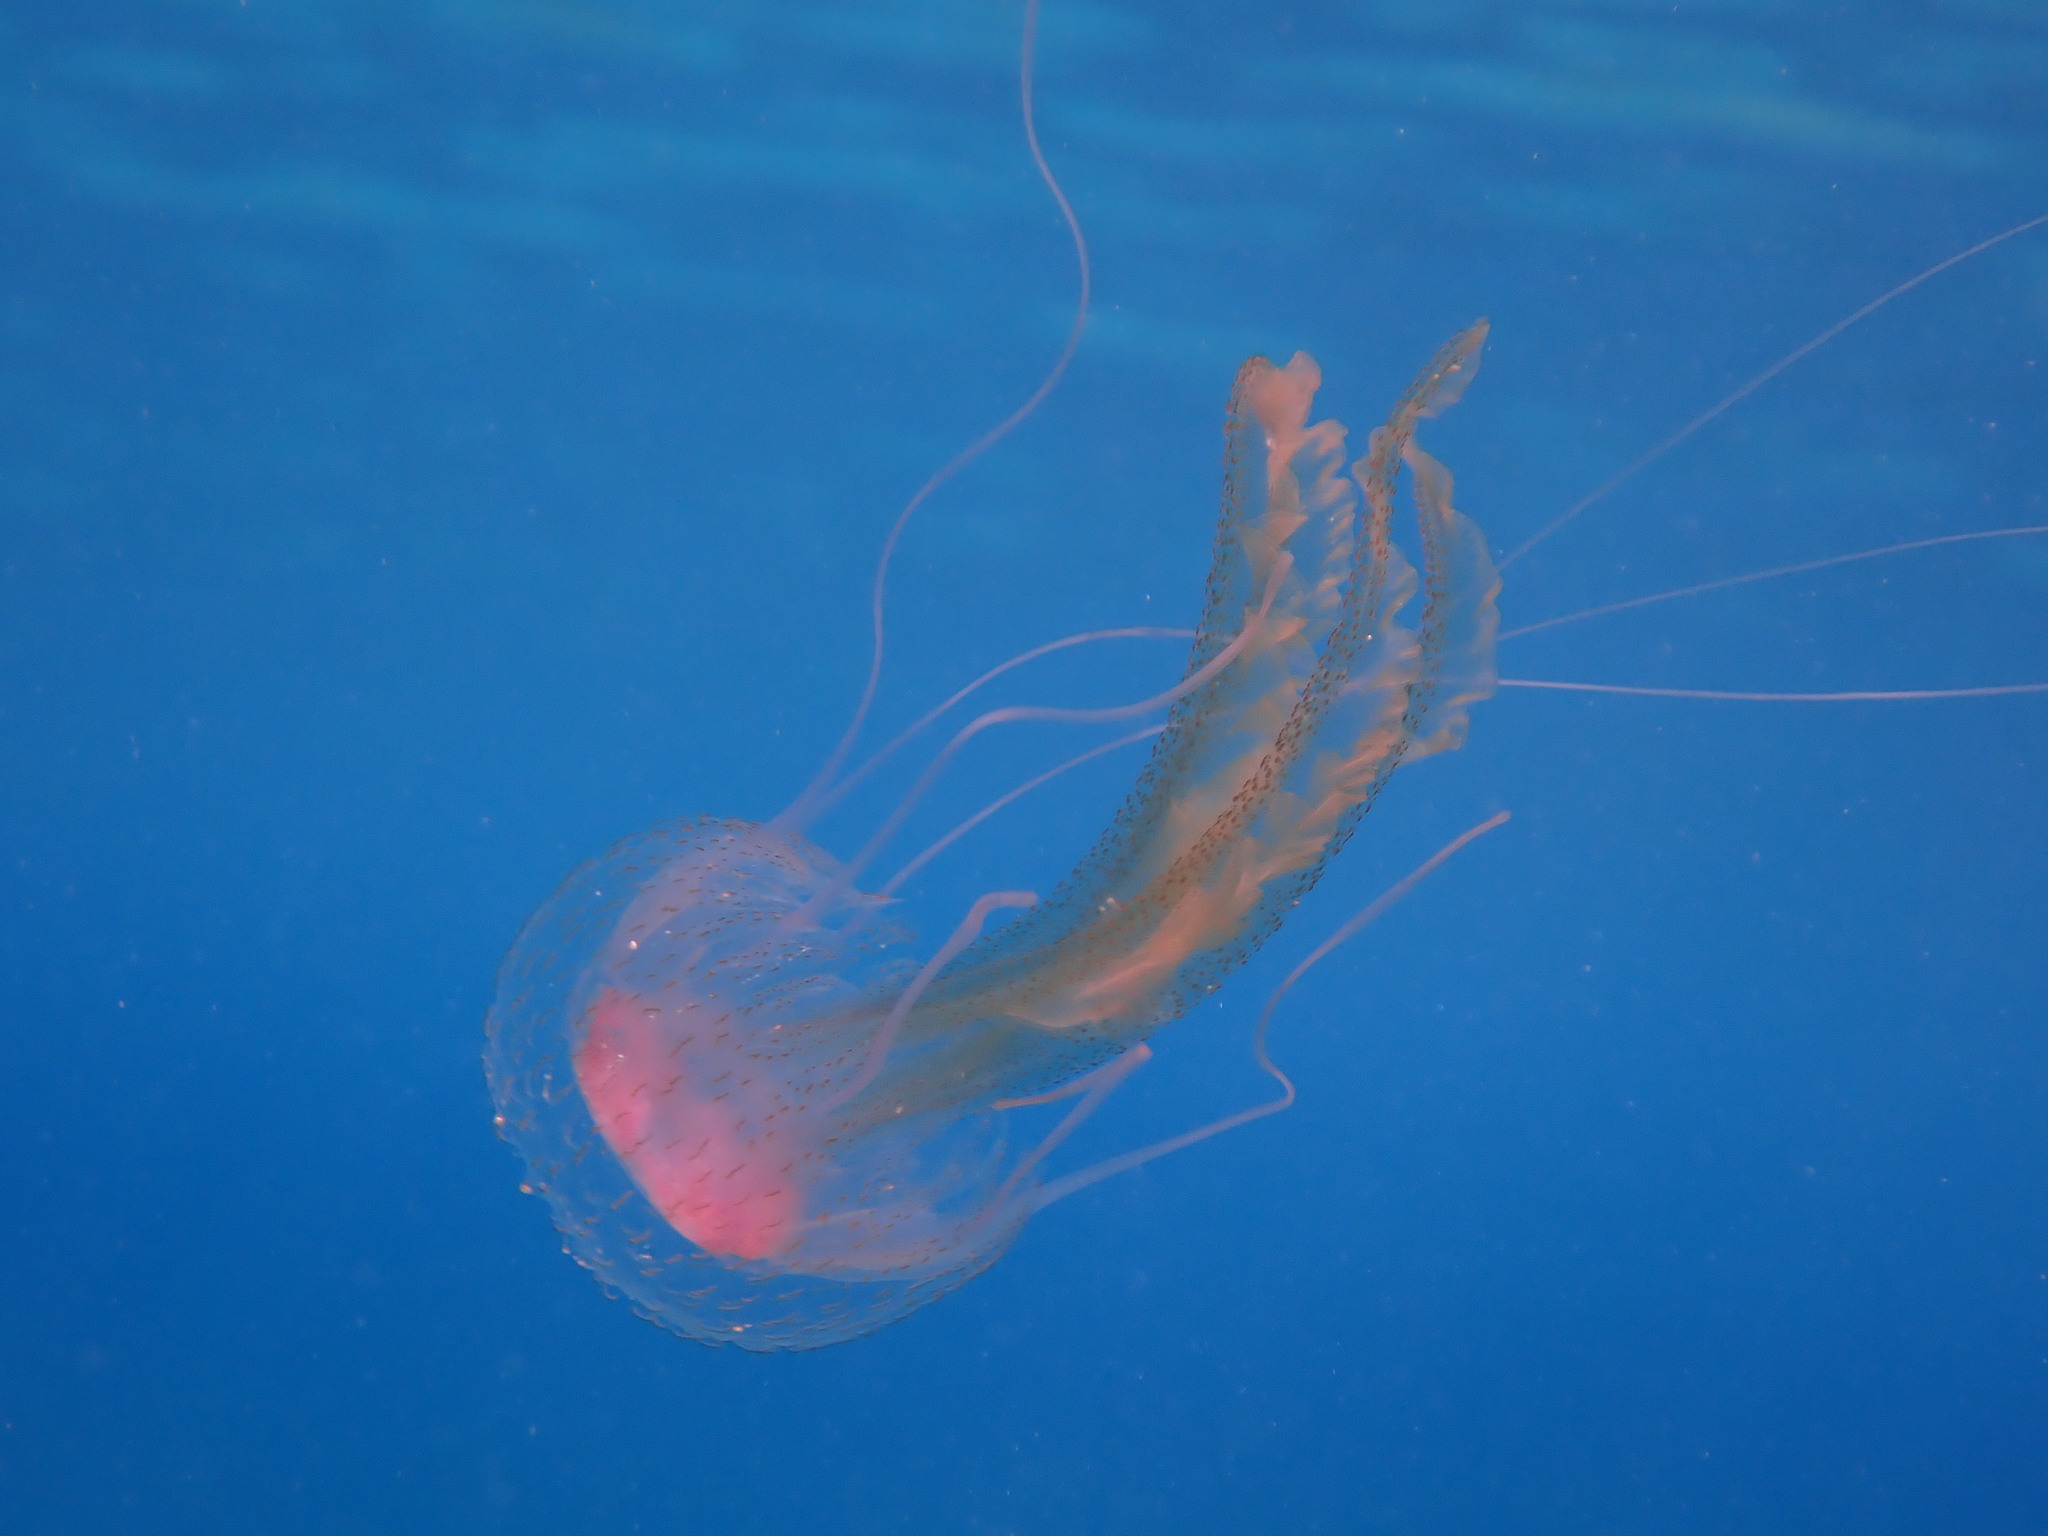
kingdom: Animalia
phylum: Cnidaria
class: Scyphozoa
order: Semaeostomeae
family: Pelagiidae
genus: Pelagia
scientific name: Pelagia noctiluca
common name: Mauve stinger
